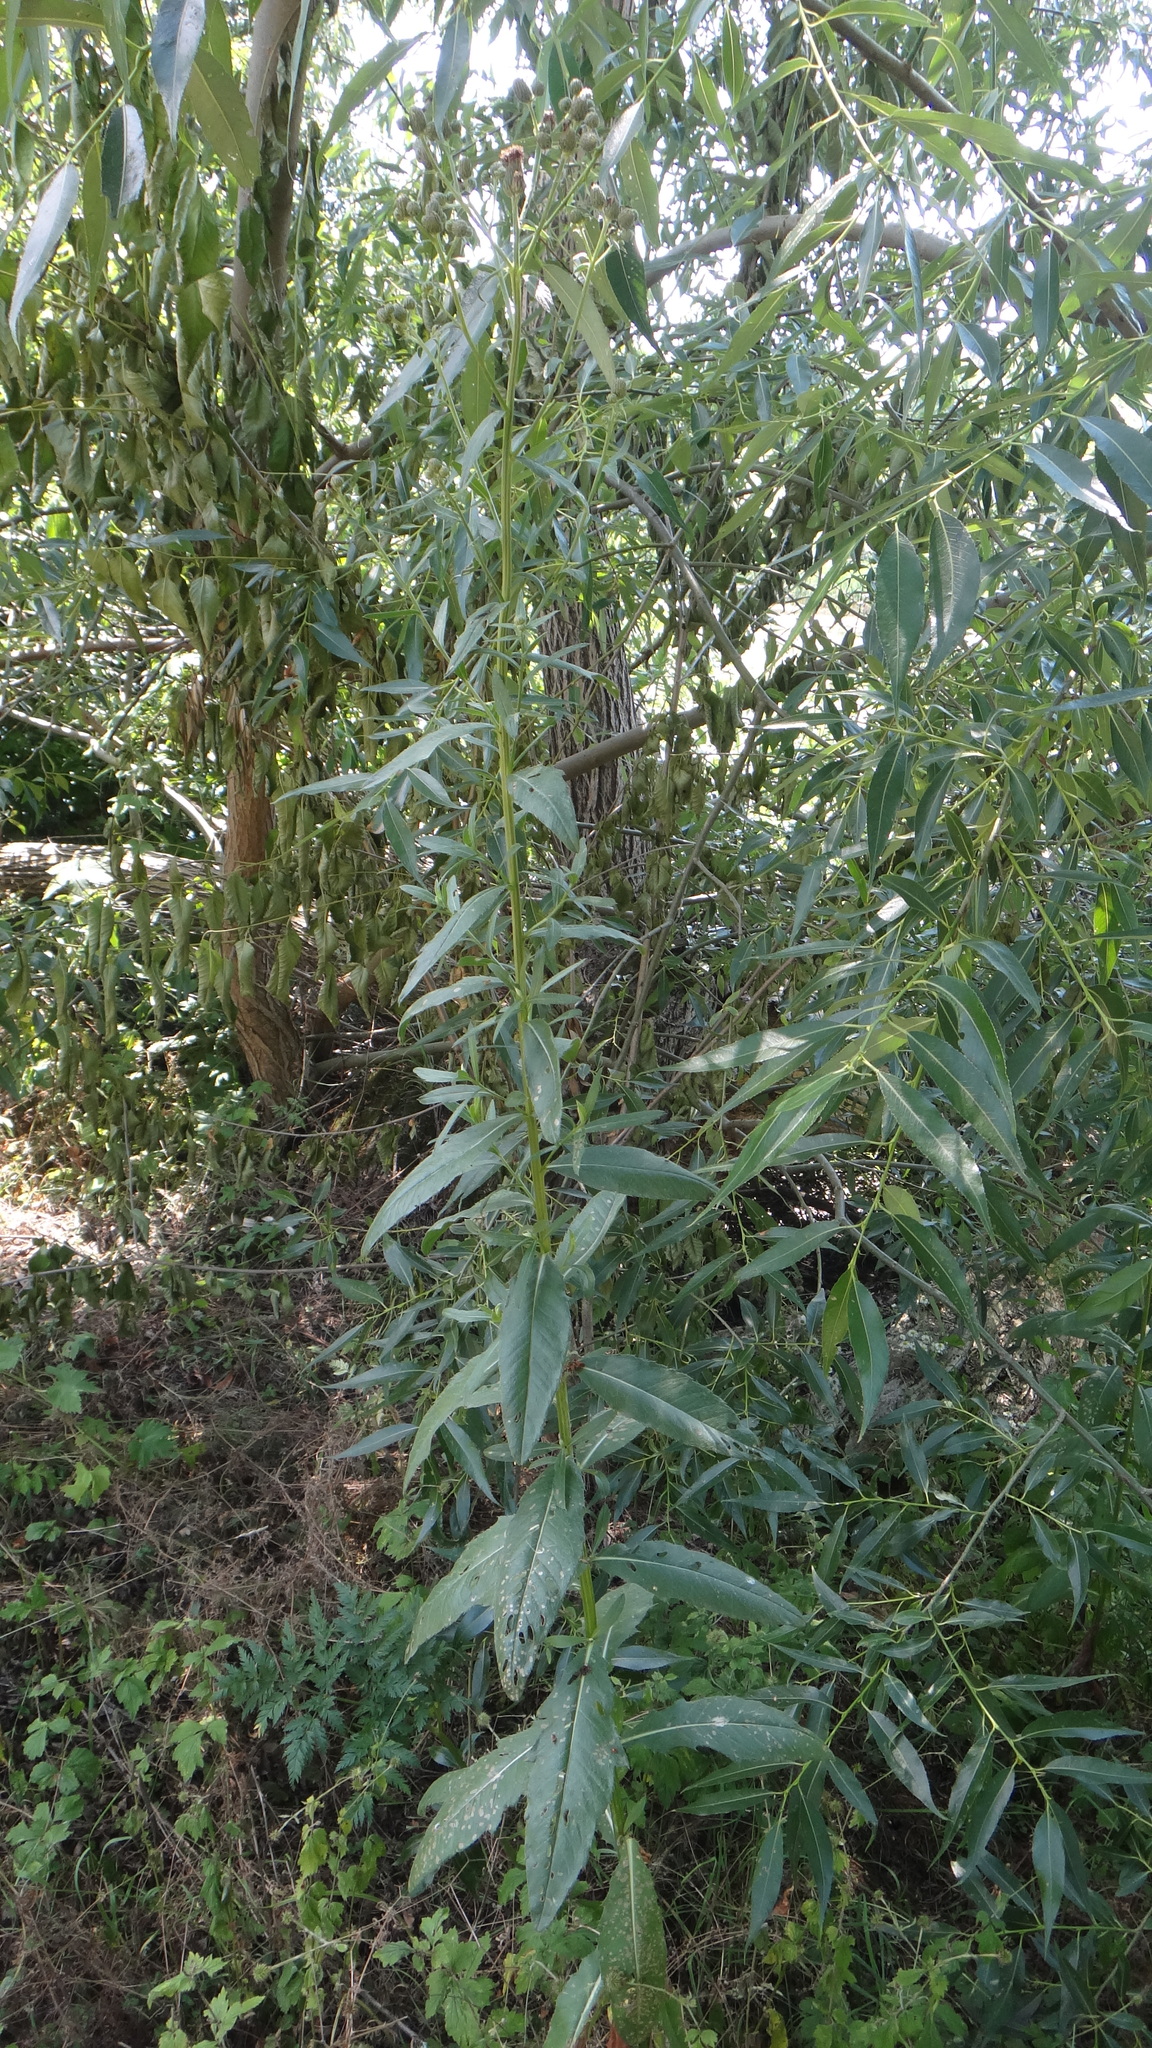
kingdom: Plantae
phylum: Tracheophyta
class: Magnoliopsida
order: Asterales
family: Asteraceae
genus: Cirsium
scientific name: Cirsium arvense
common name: Creeping thistle
